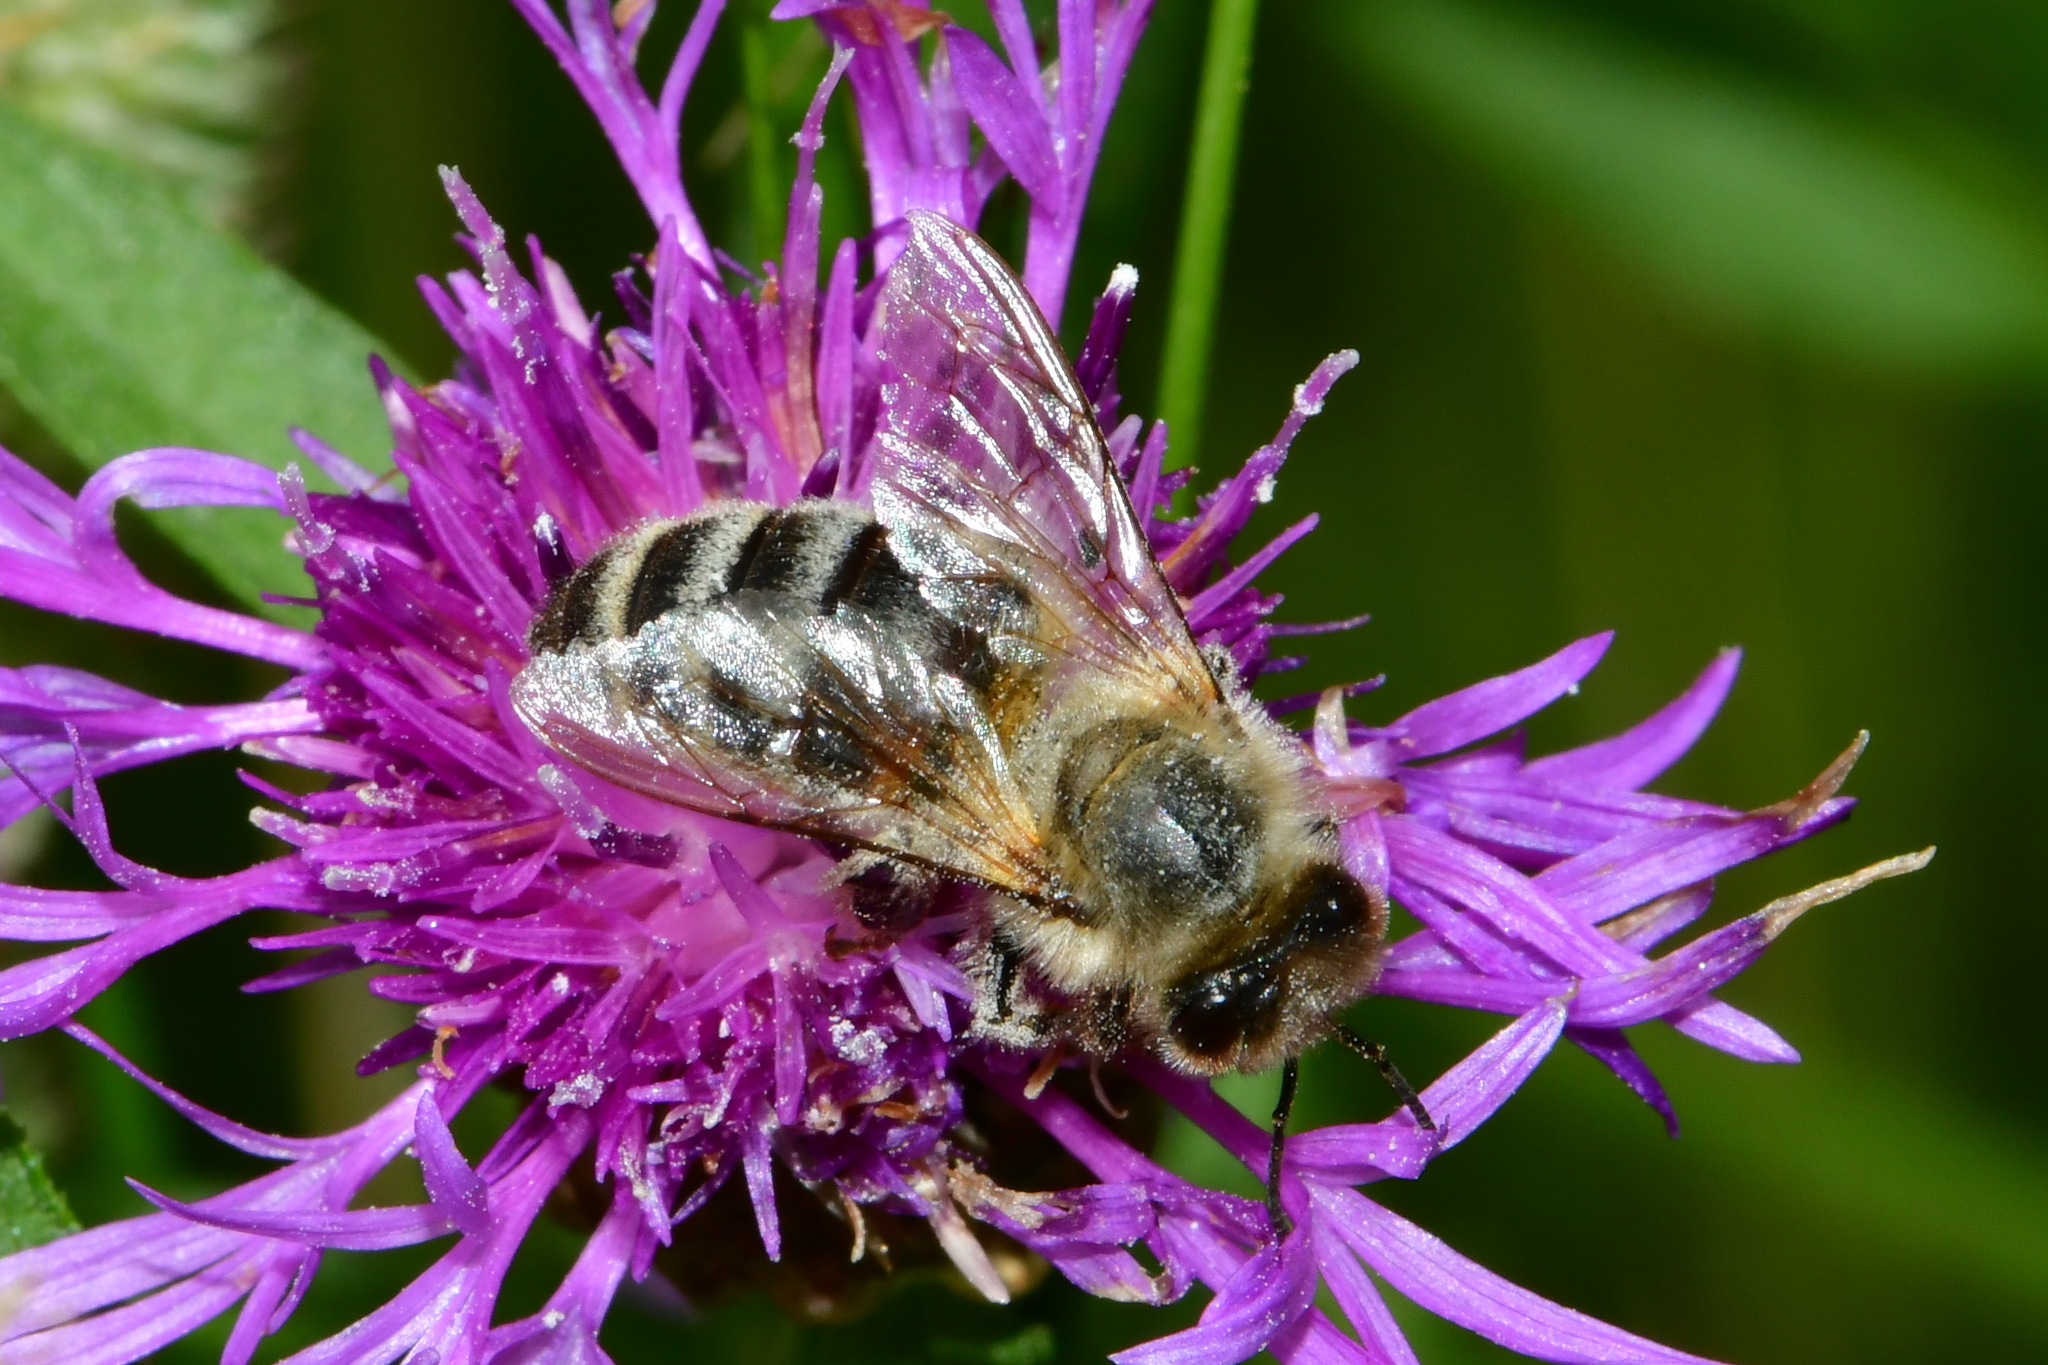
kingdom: Animalia
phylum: Arthropoda
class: Insecta
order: Hymenoptera
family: Apidae
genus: Apis
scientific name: Apis mellifera
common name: Honey bee
